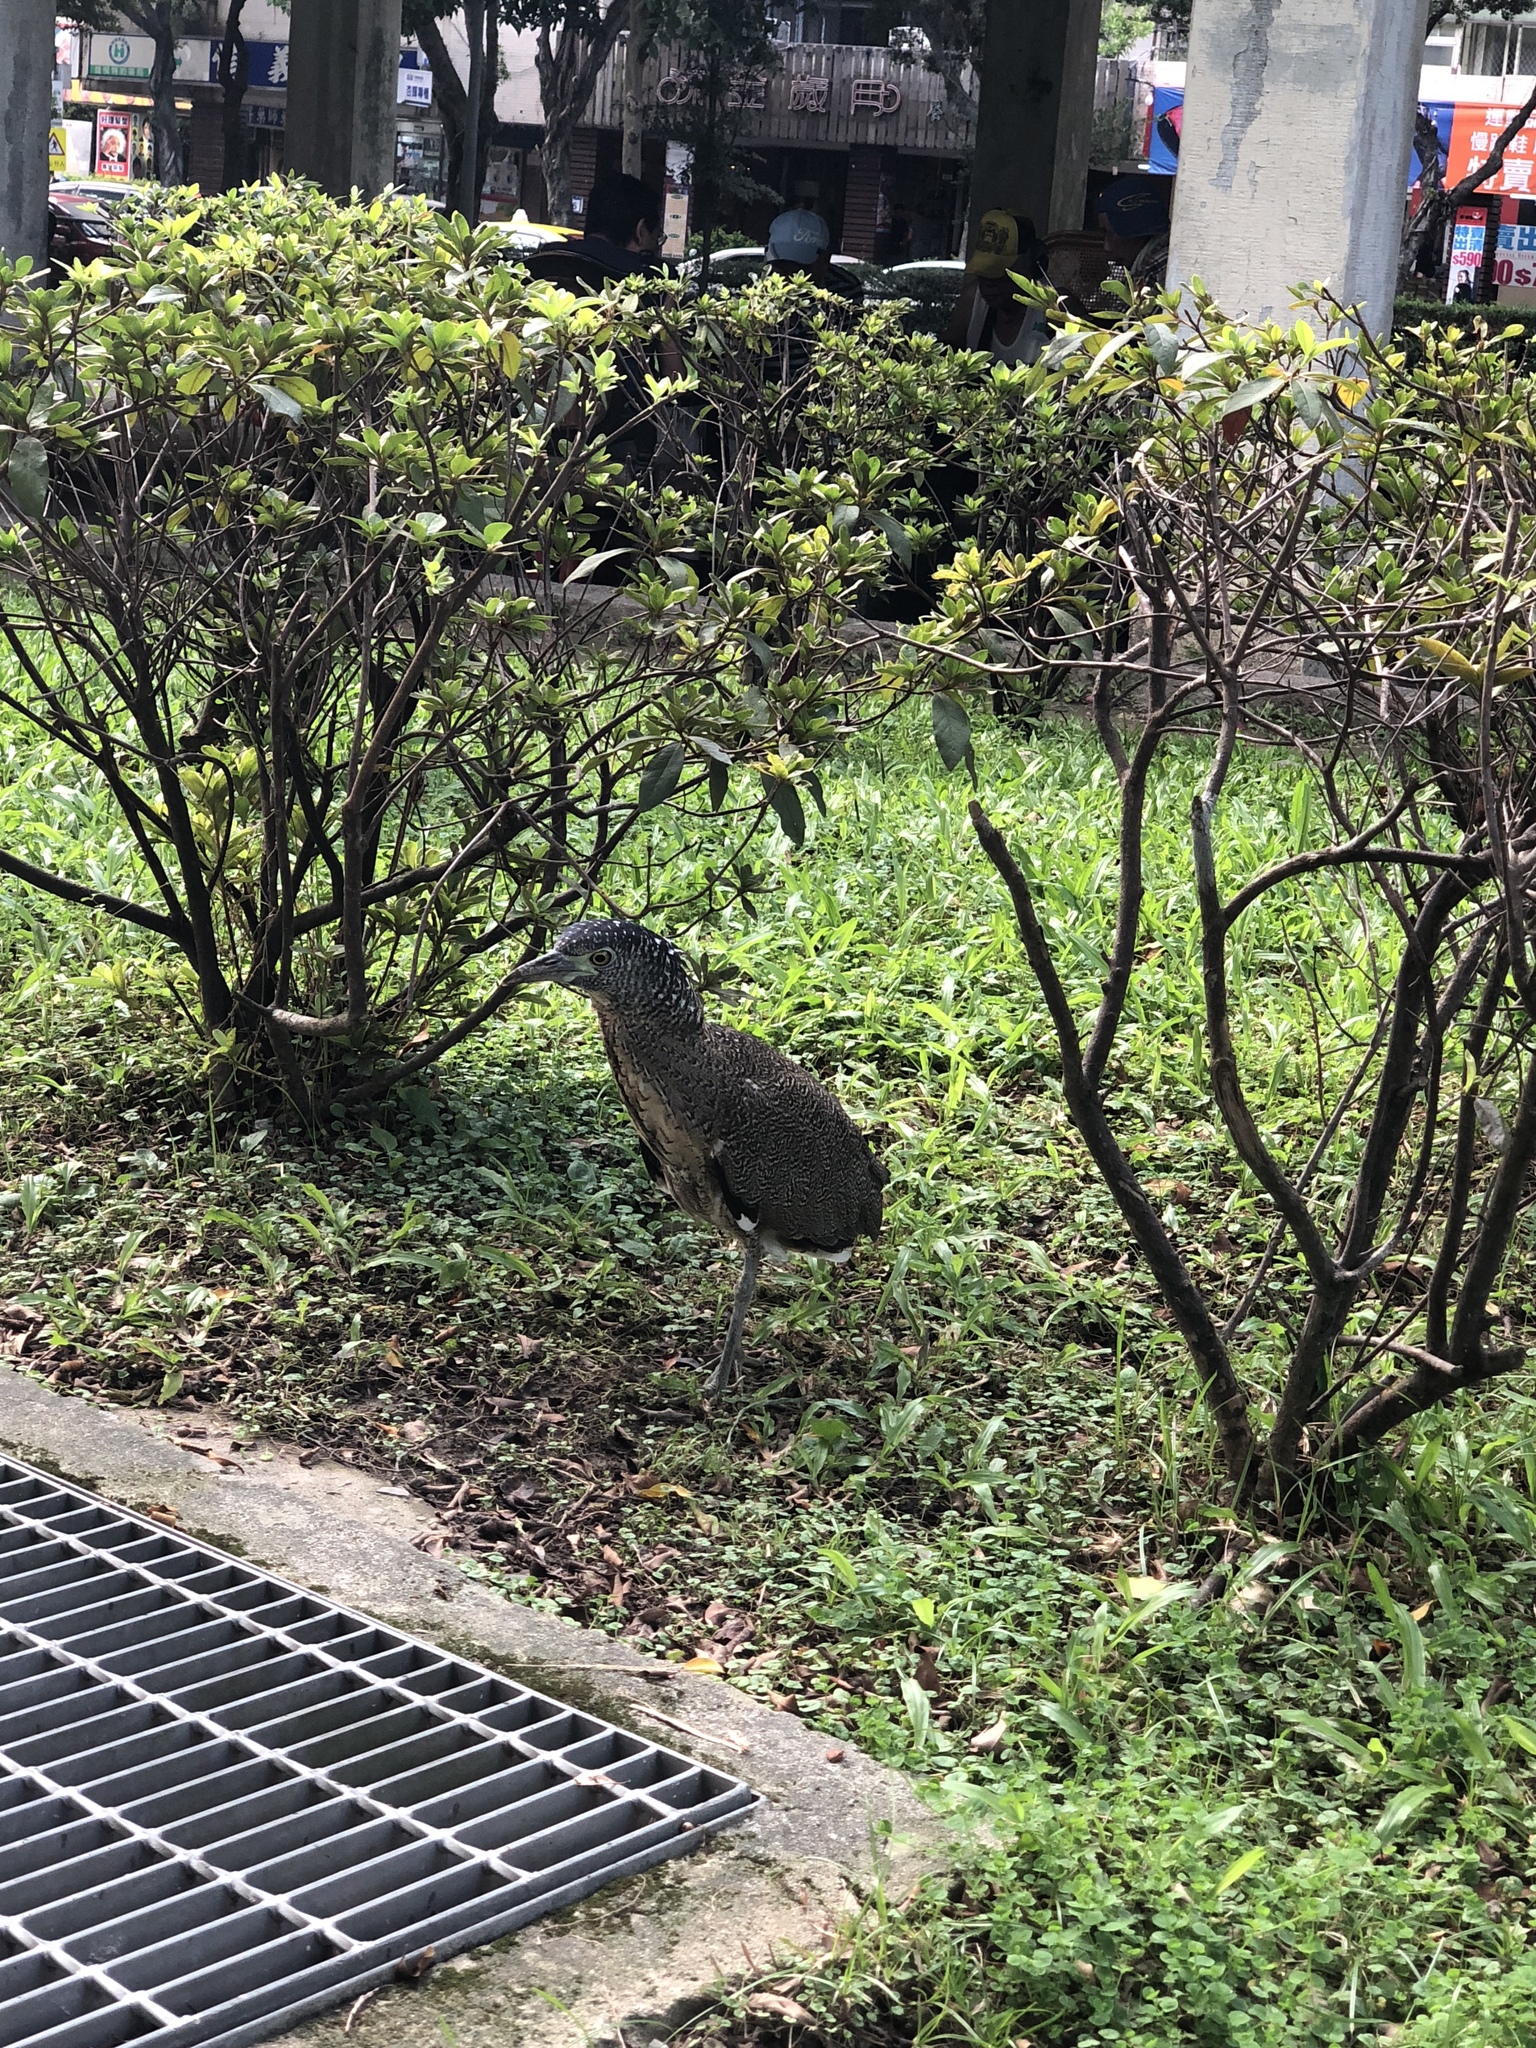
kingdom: Animalia
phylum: Chordata
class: Aves
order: Pelecaniformes
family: Ardeidae
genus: Gorsachius
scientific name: Gorsachius melanolophus
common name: Malayan night heron
